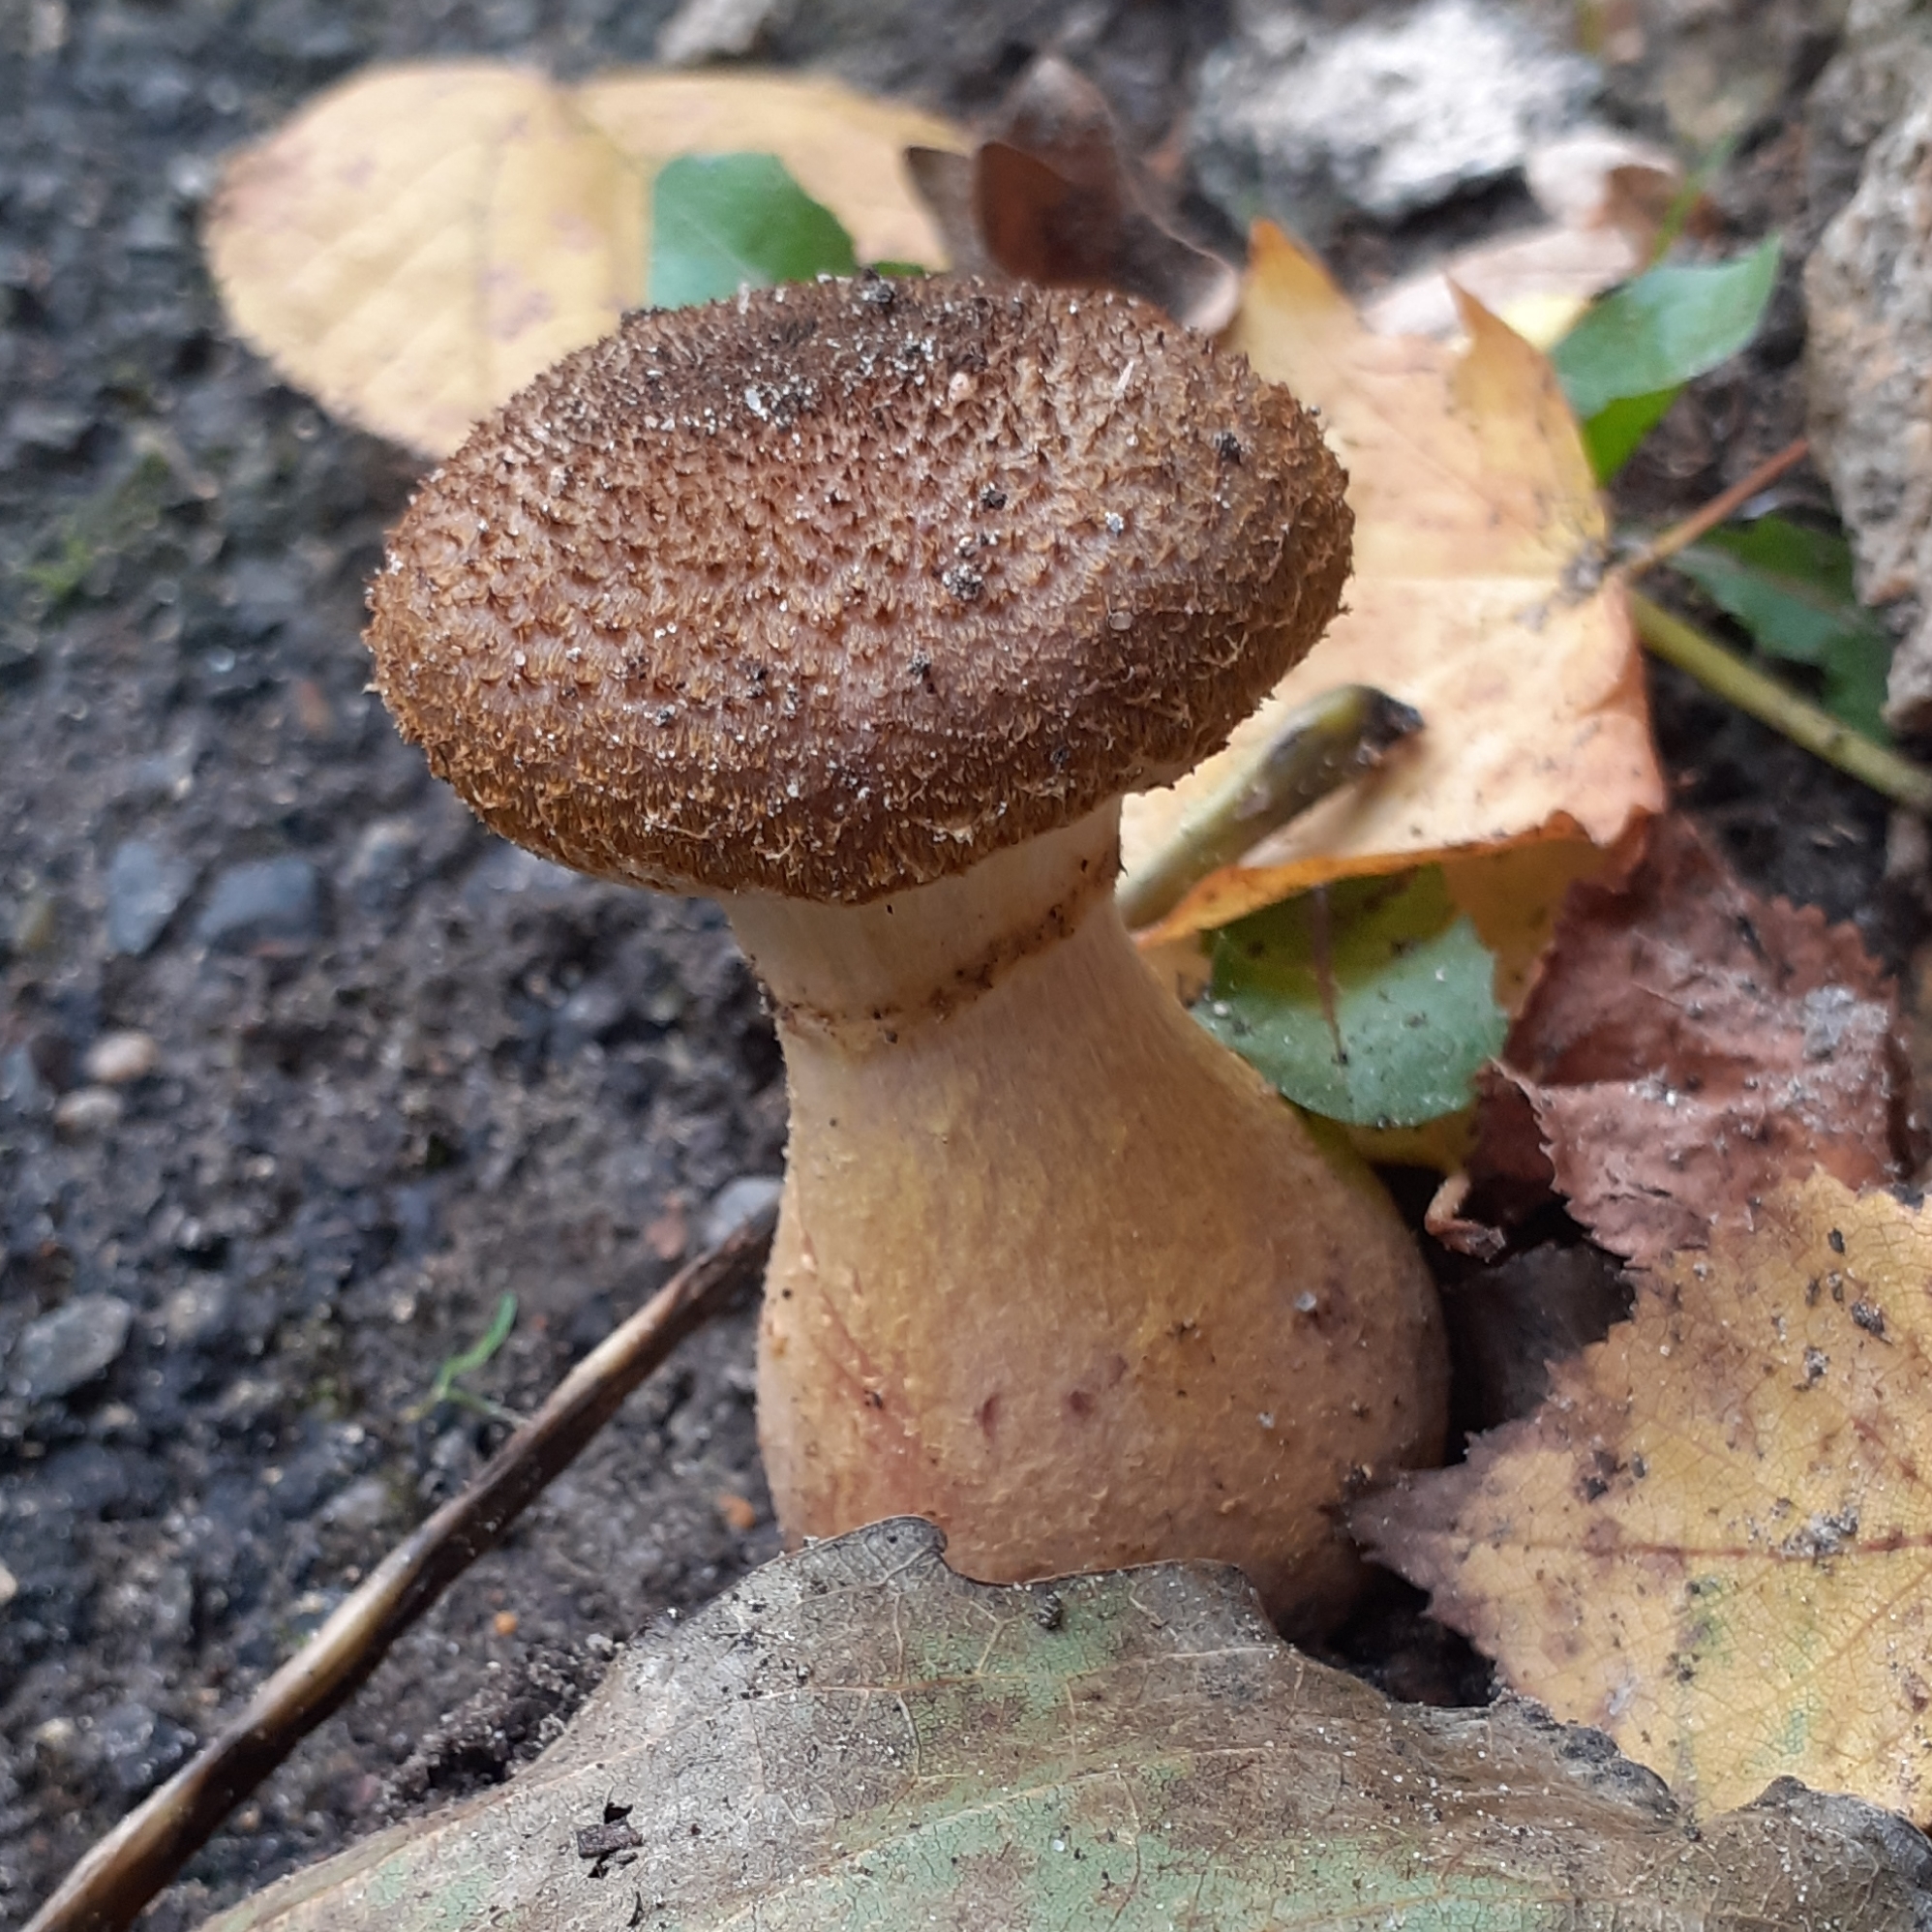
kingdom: Fungi
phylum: Basidiomycota
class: Agaricomycetes
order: Agaricales
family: Physalacriaceae
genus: Armillaria
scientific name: Armillaria gallica
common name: Bulbous honey fungus
